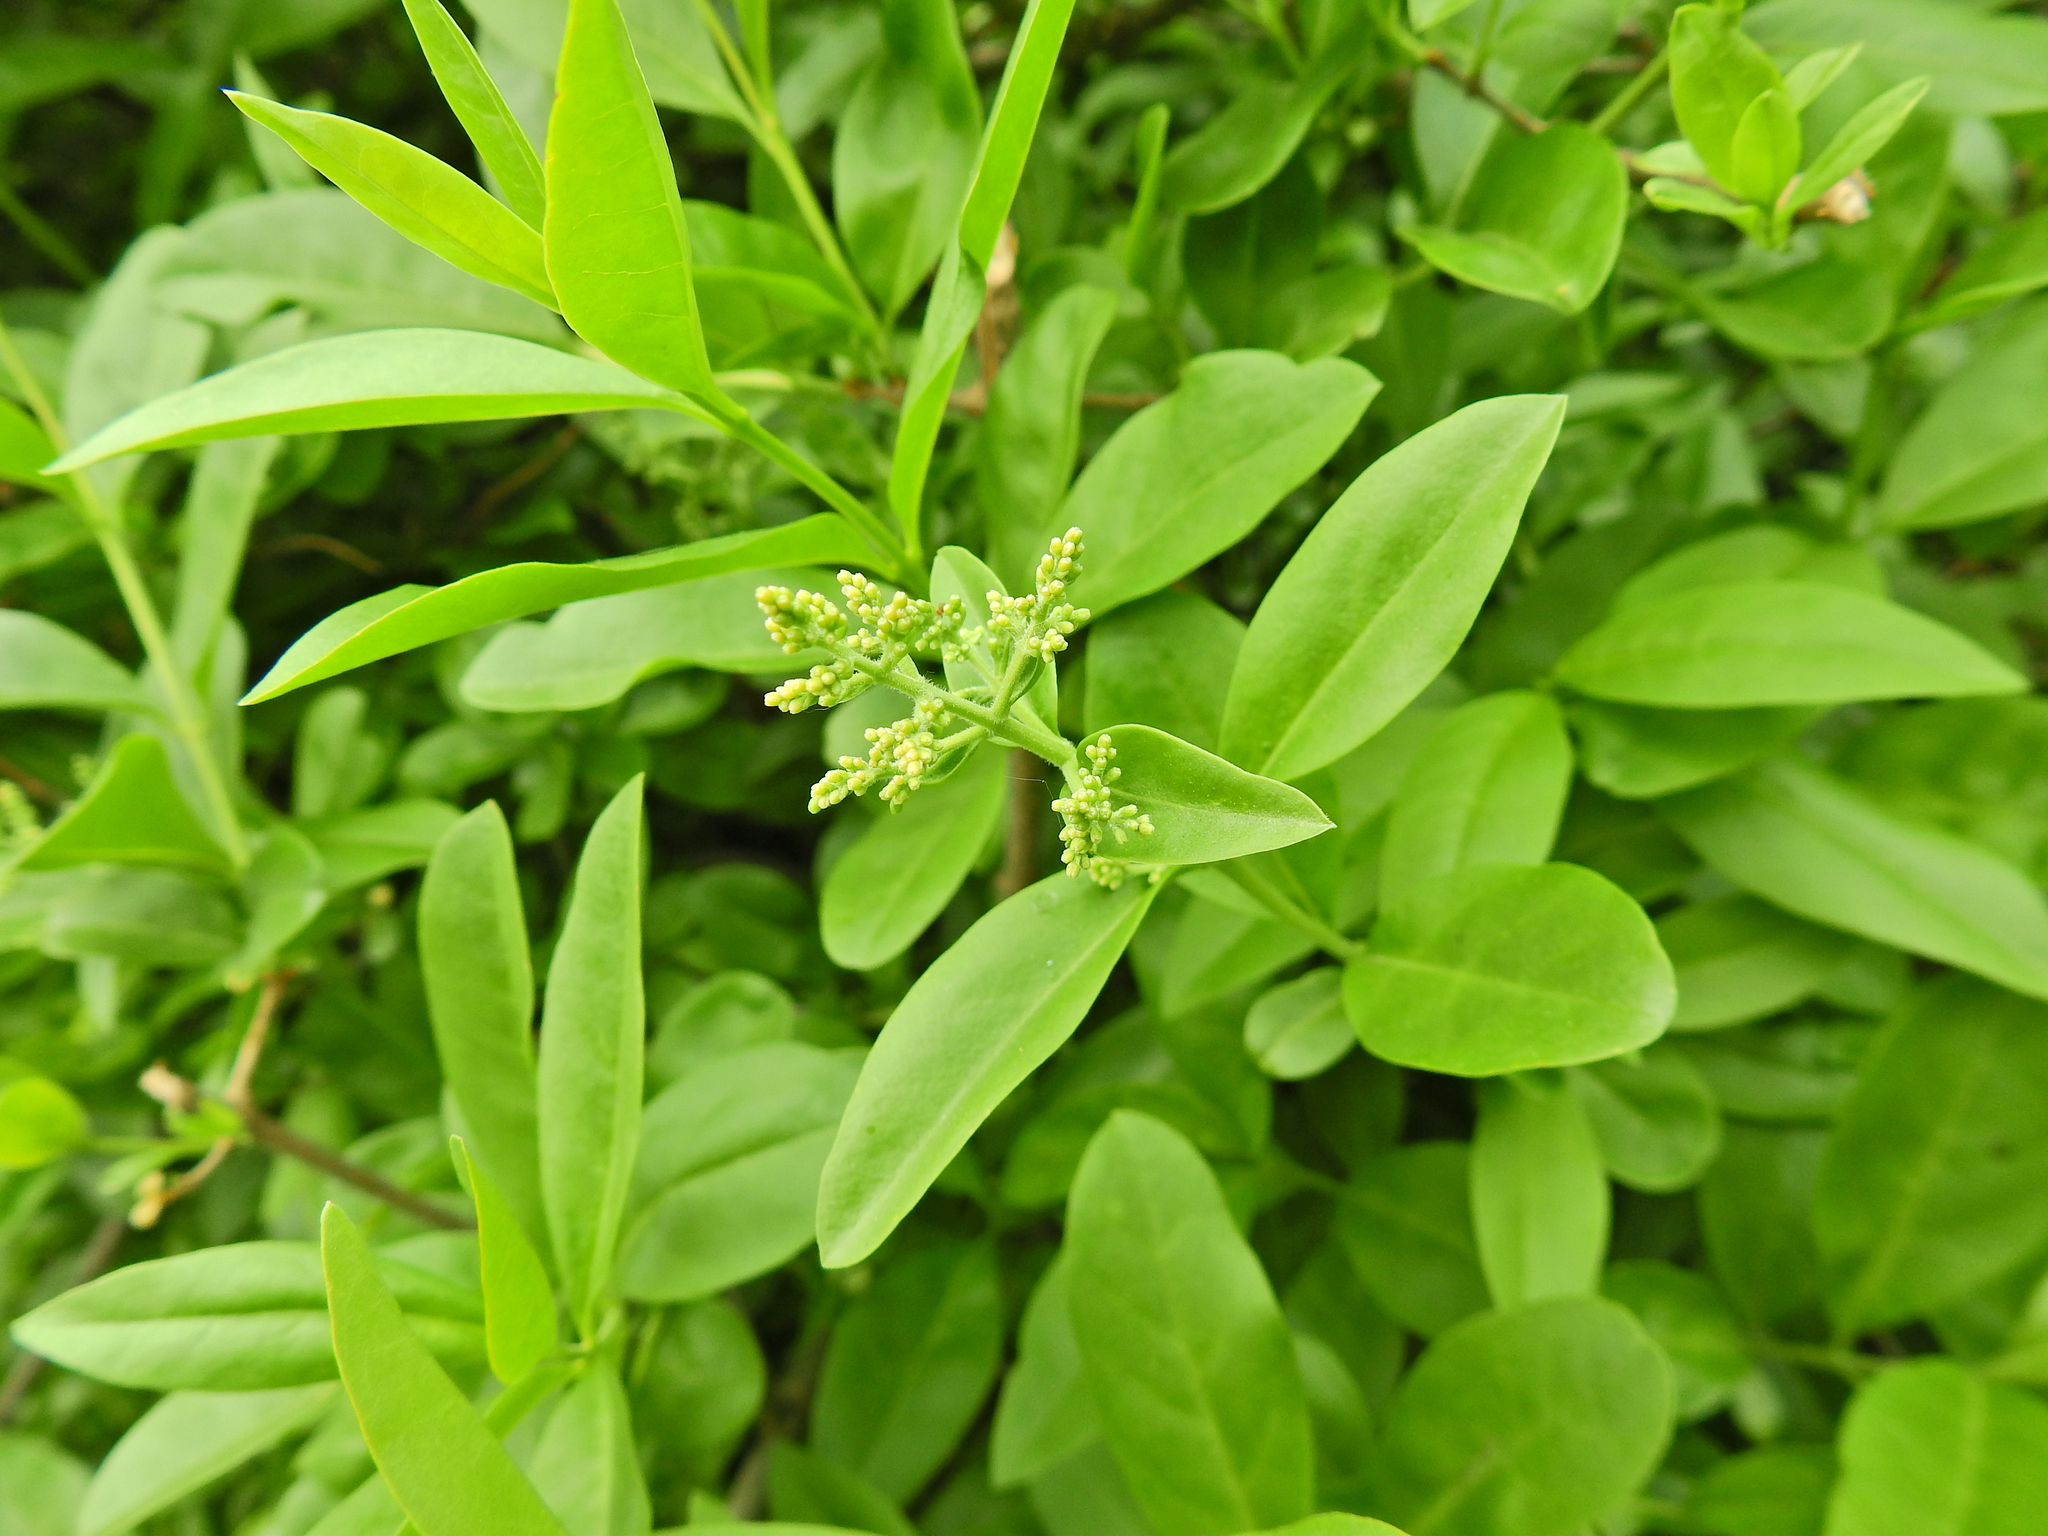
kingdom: Plantae
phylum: Tracheophyta
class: Magnoliopsida
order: Lamiales
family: Oleaceae
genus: Ligustrum
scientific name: Ligustrum vulgare
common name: Wild privet
